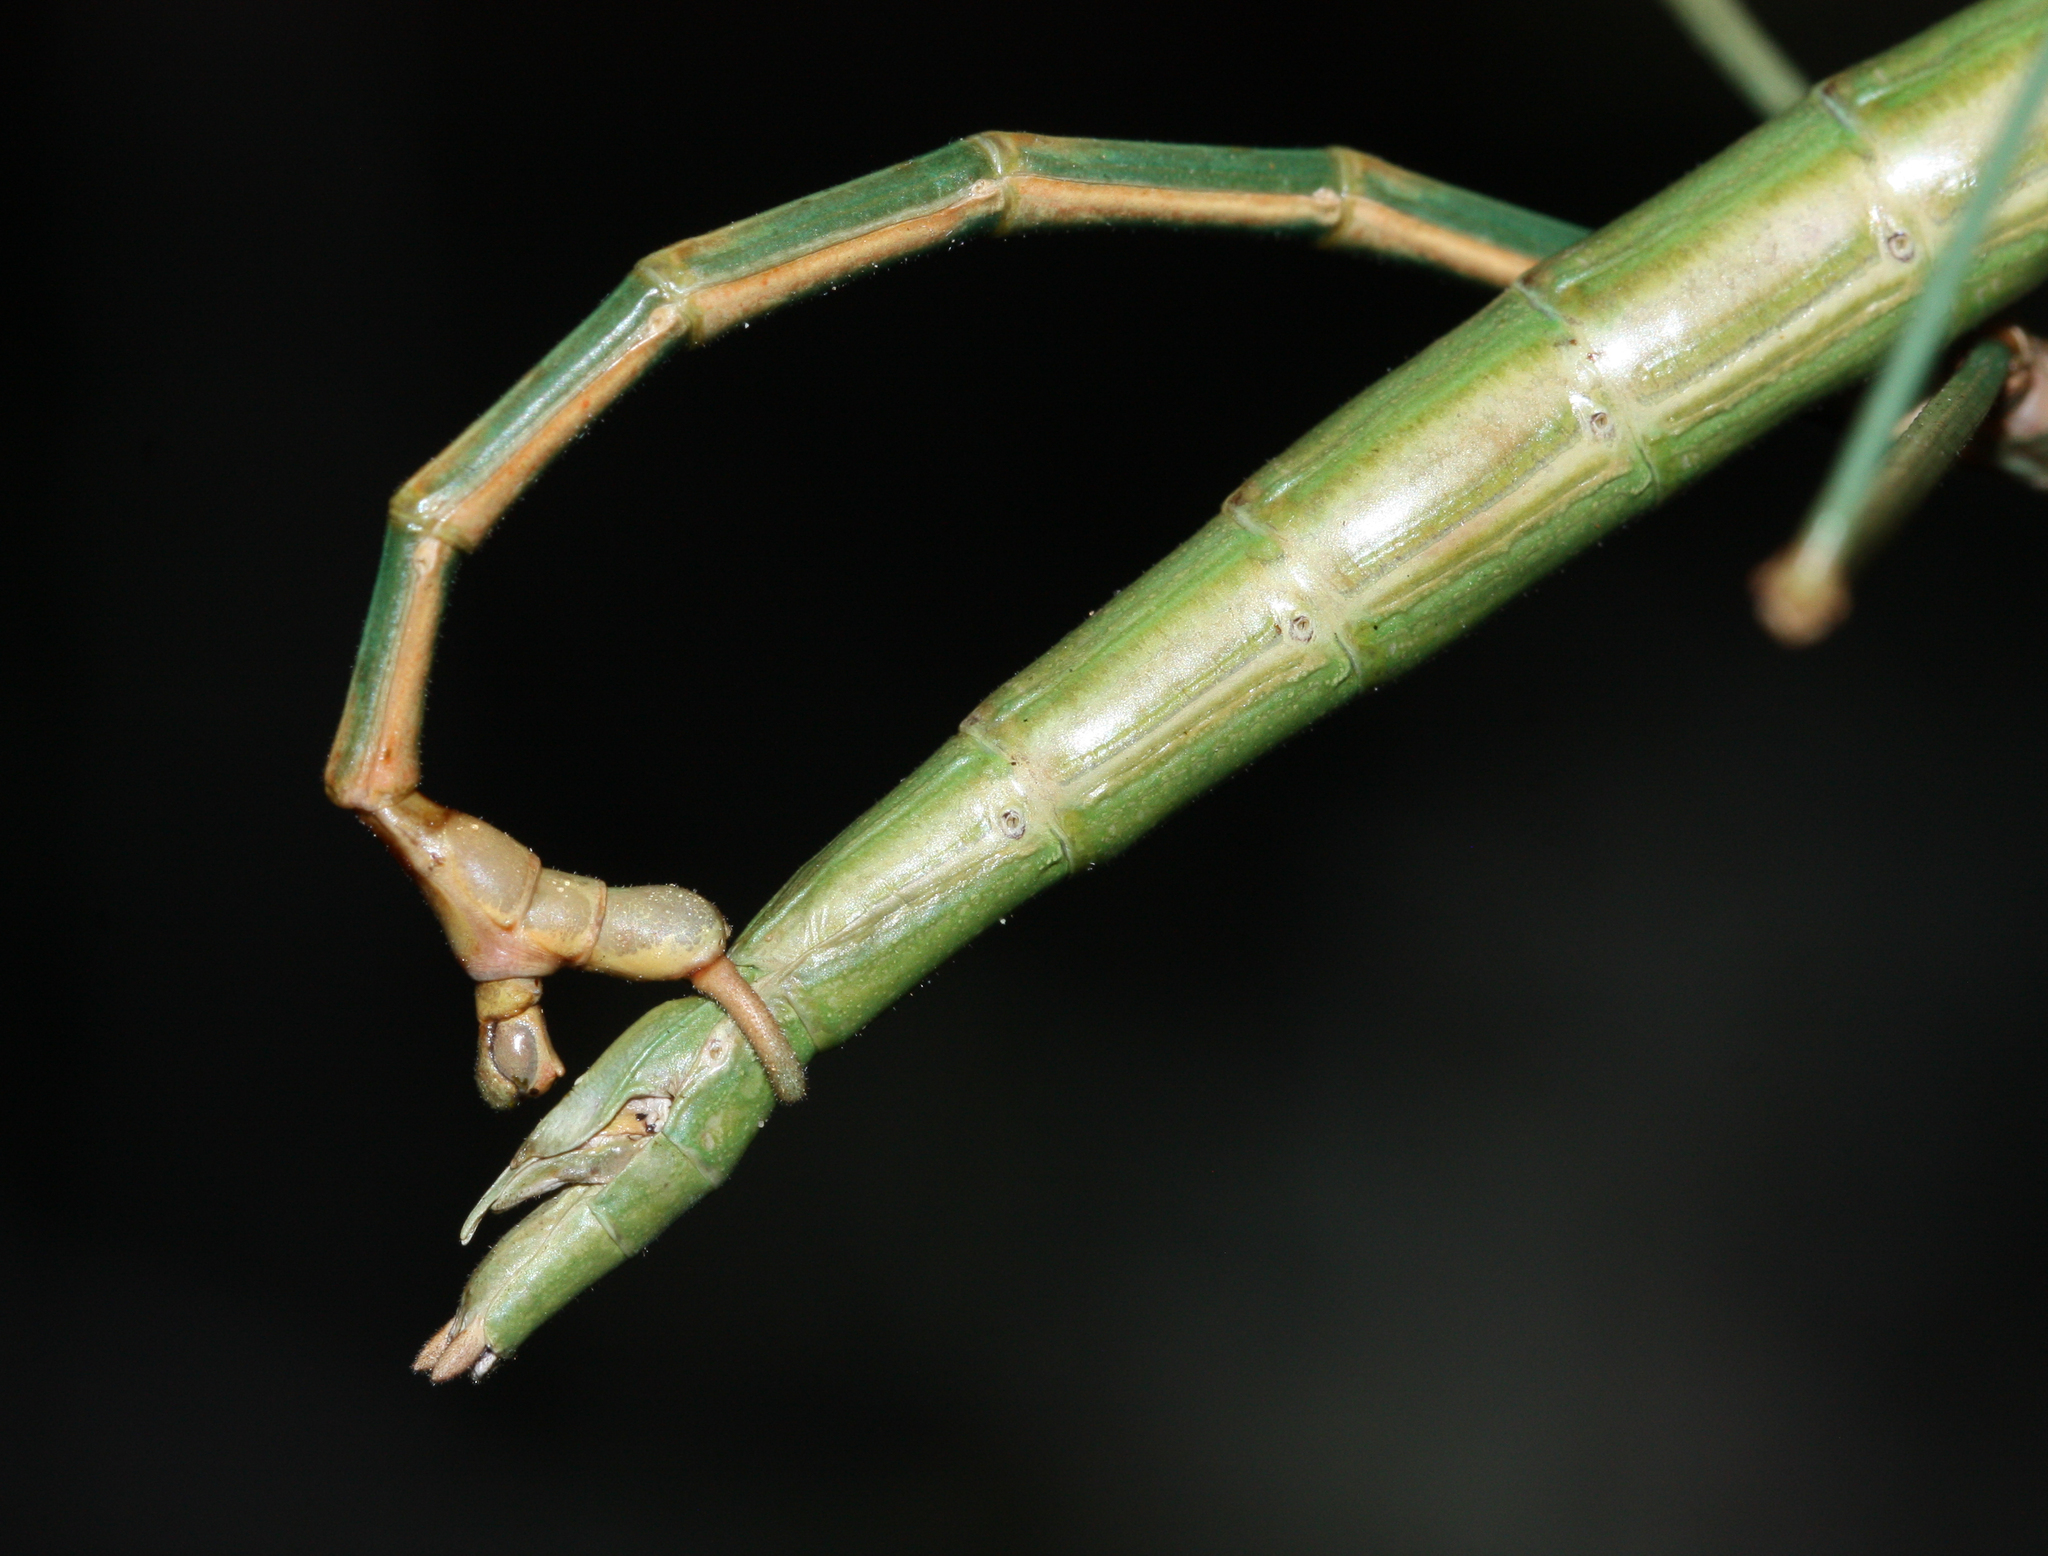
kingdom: Animalia
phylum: Arthropoda
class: Insecta
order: Phasmida
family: Diapheromeridae
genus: Diapheromera
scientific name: Diapheromera arizonensis
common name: Arizona walkingstick
